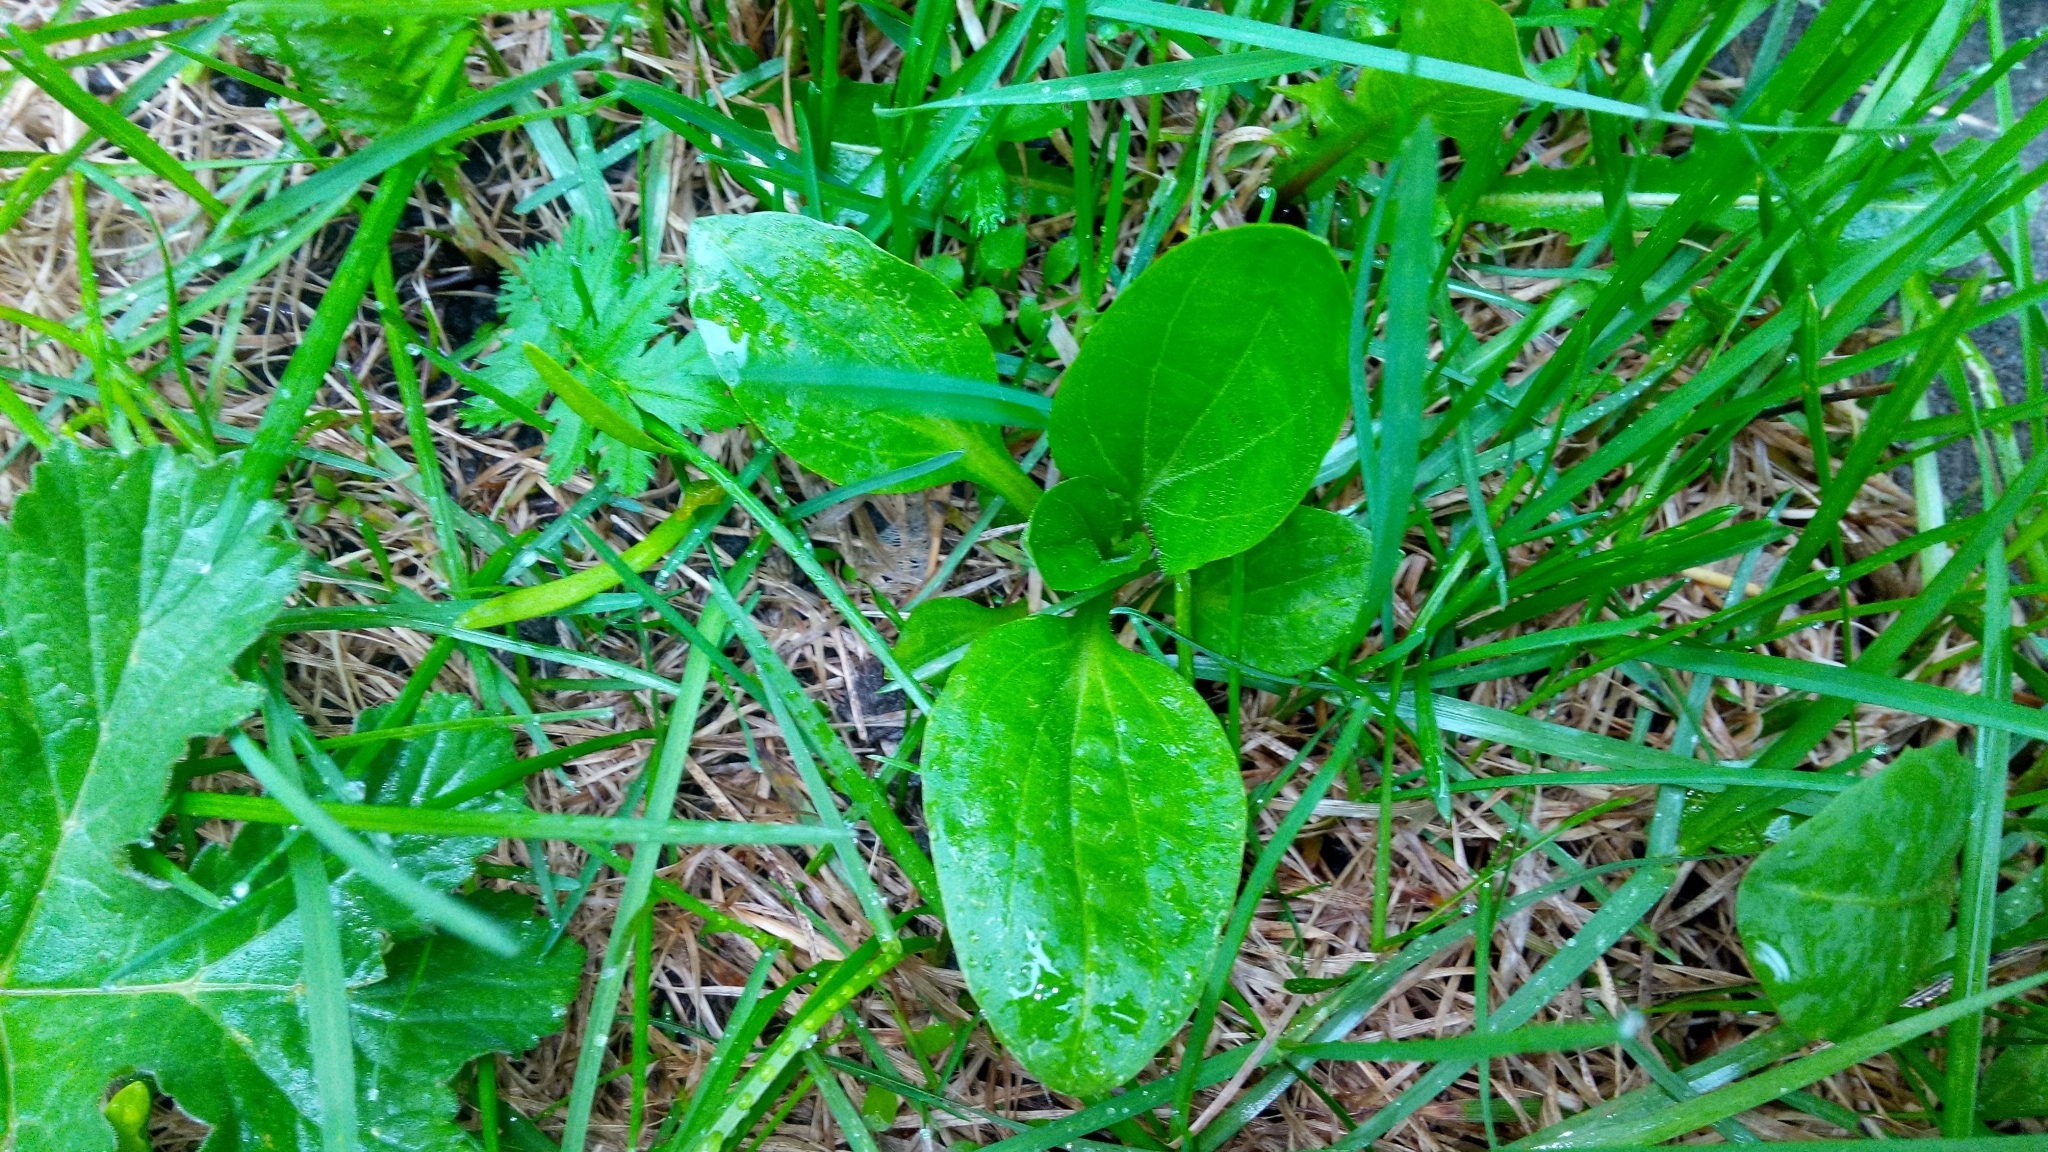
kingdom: Plantae
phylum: Tracheophyta
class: Magnoliopsida
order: Lamiales
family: Plantaginaceae
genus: Plantago
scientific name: Plantago major
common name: Common plantain
